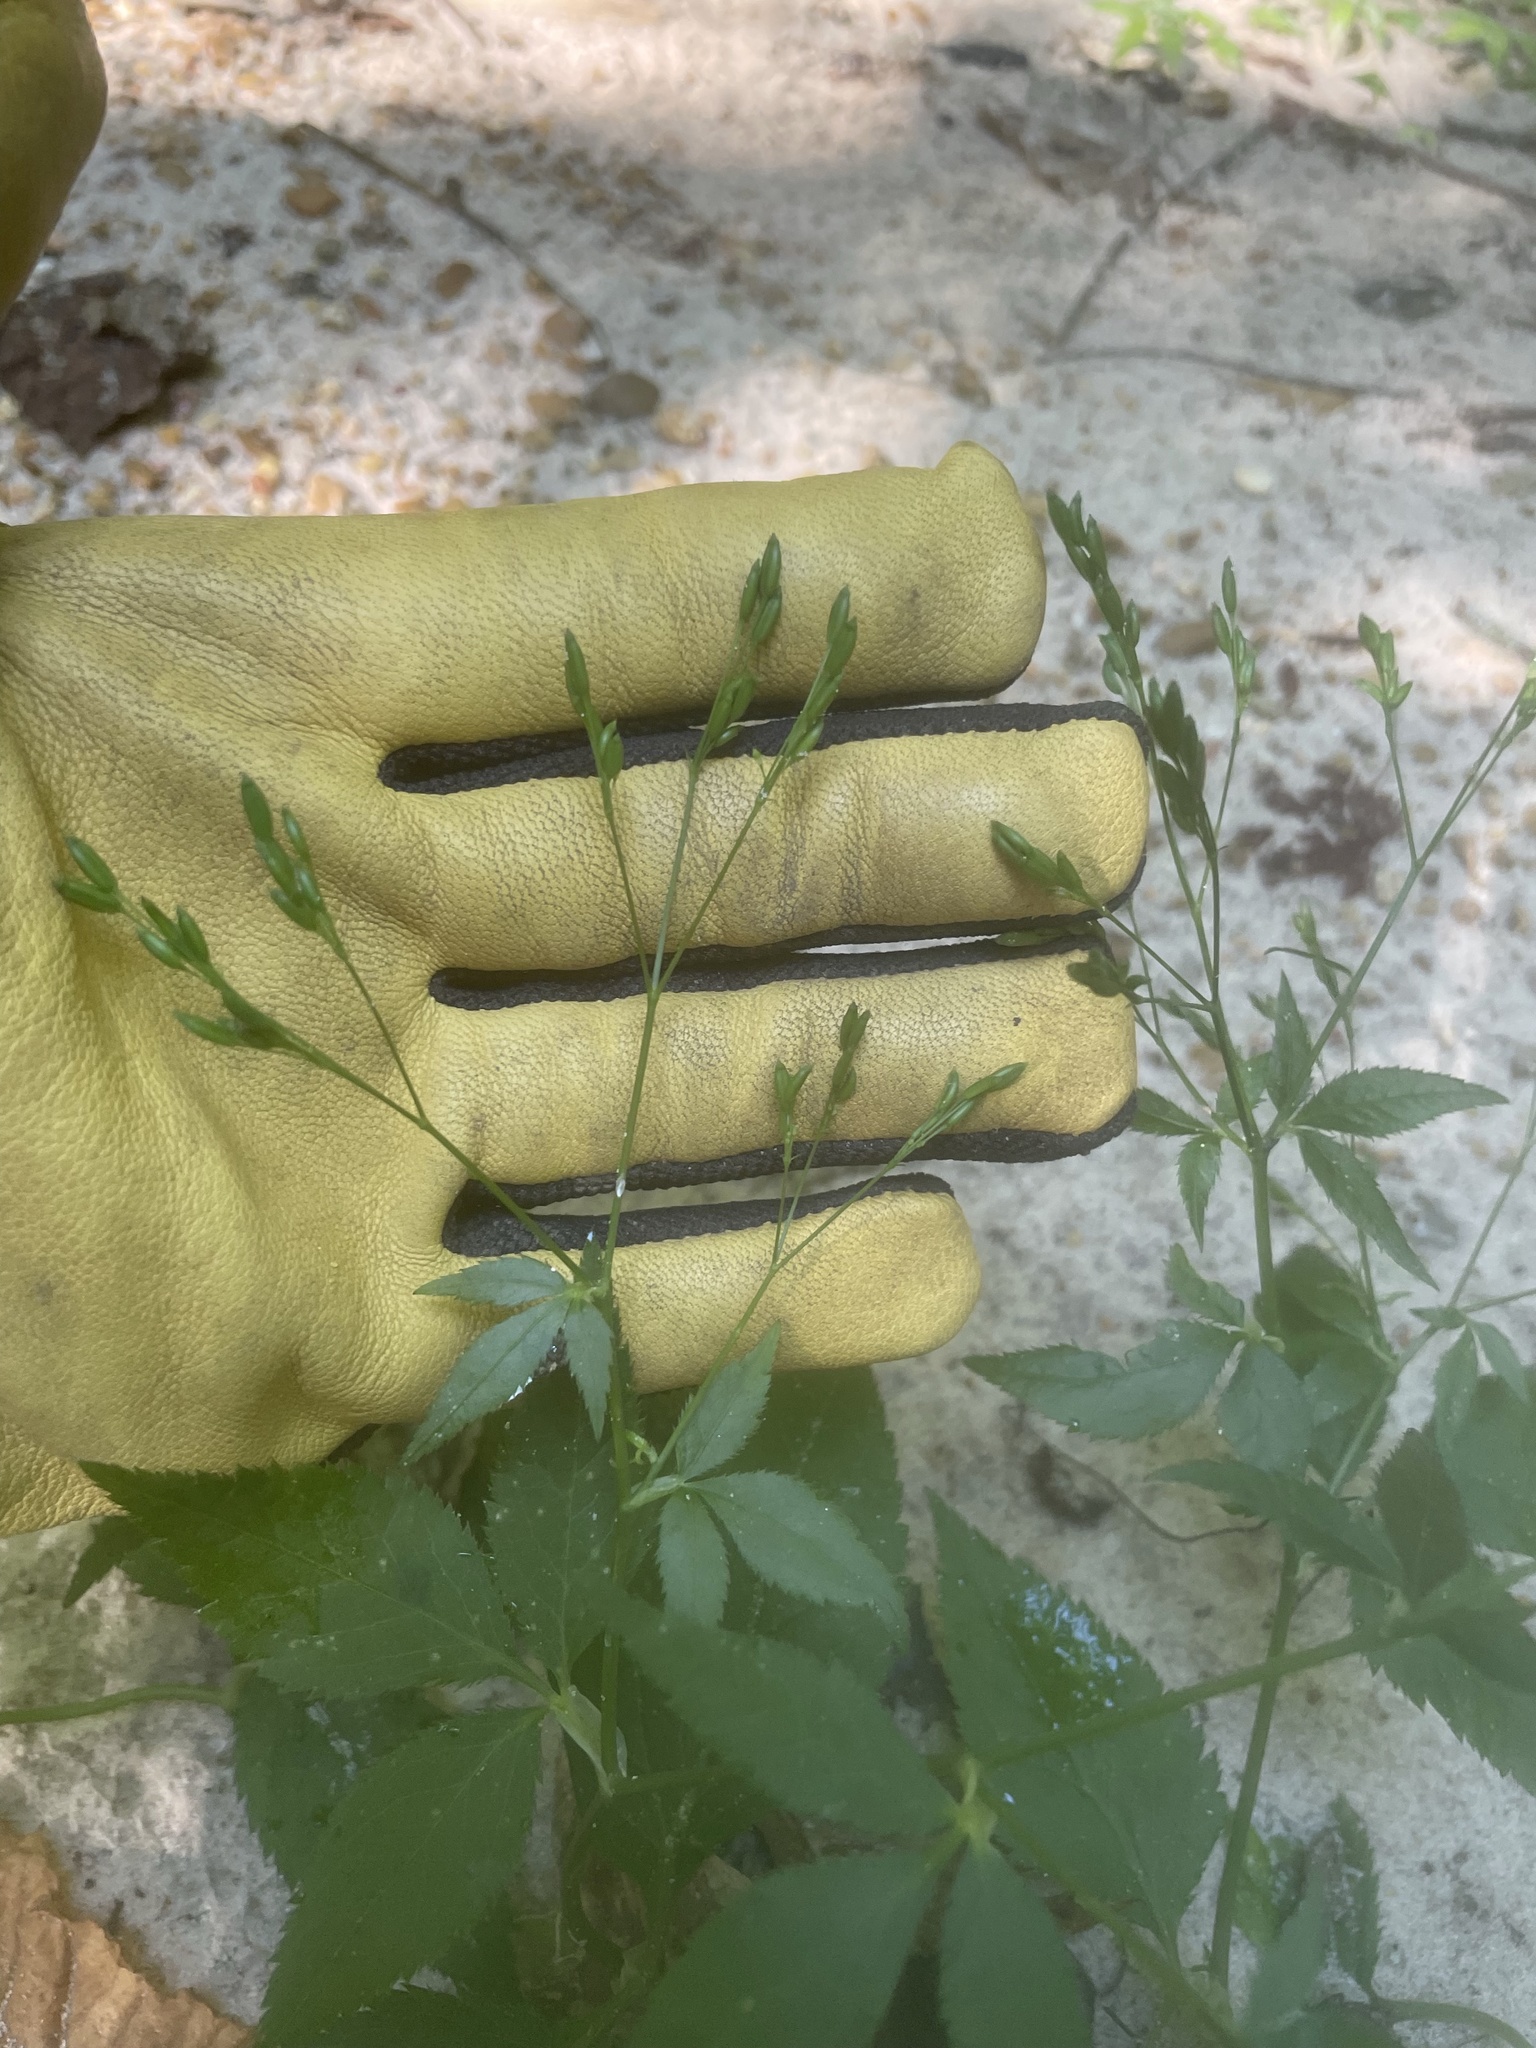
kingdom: Plantae
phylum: Tracheophyta
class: Magnoliopsida
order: Apiales
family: Apiaceae
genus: Cryptotaenia
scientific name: Cryptotaenia canadensis
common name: Honewort
